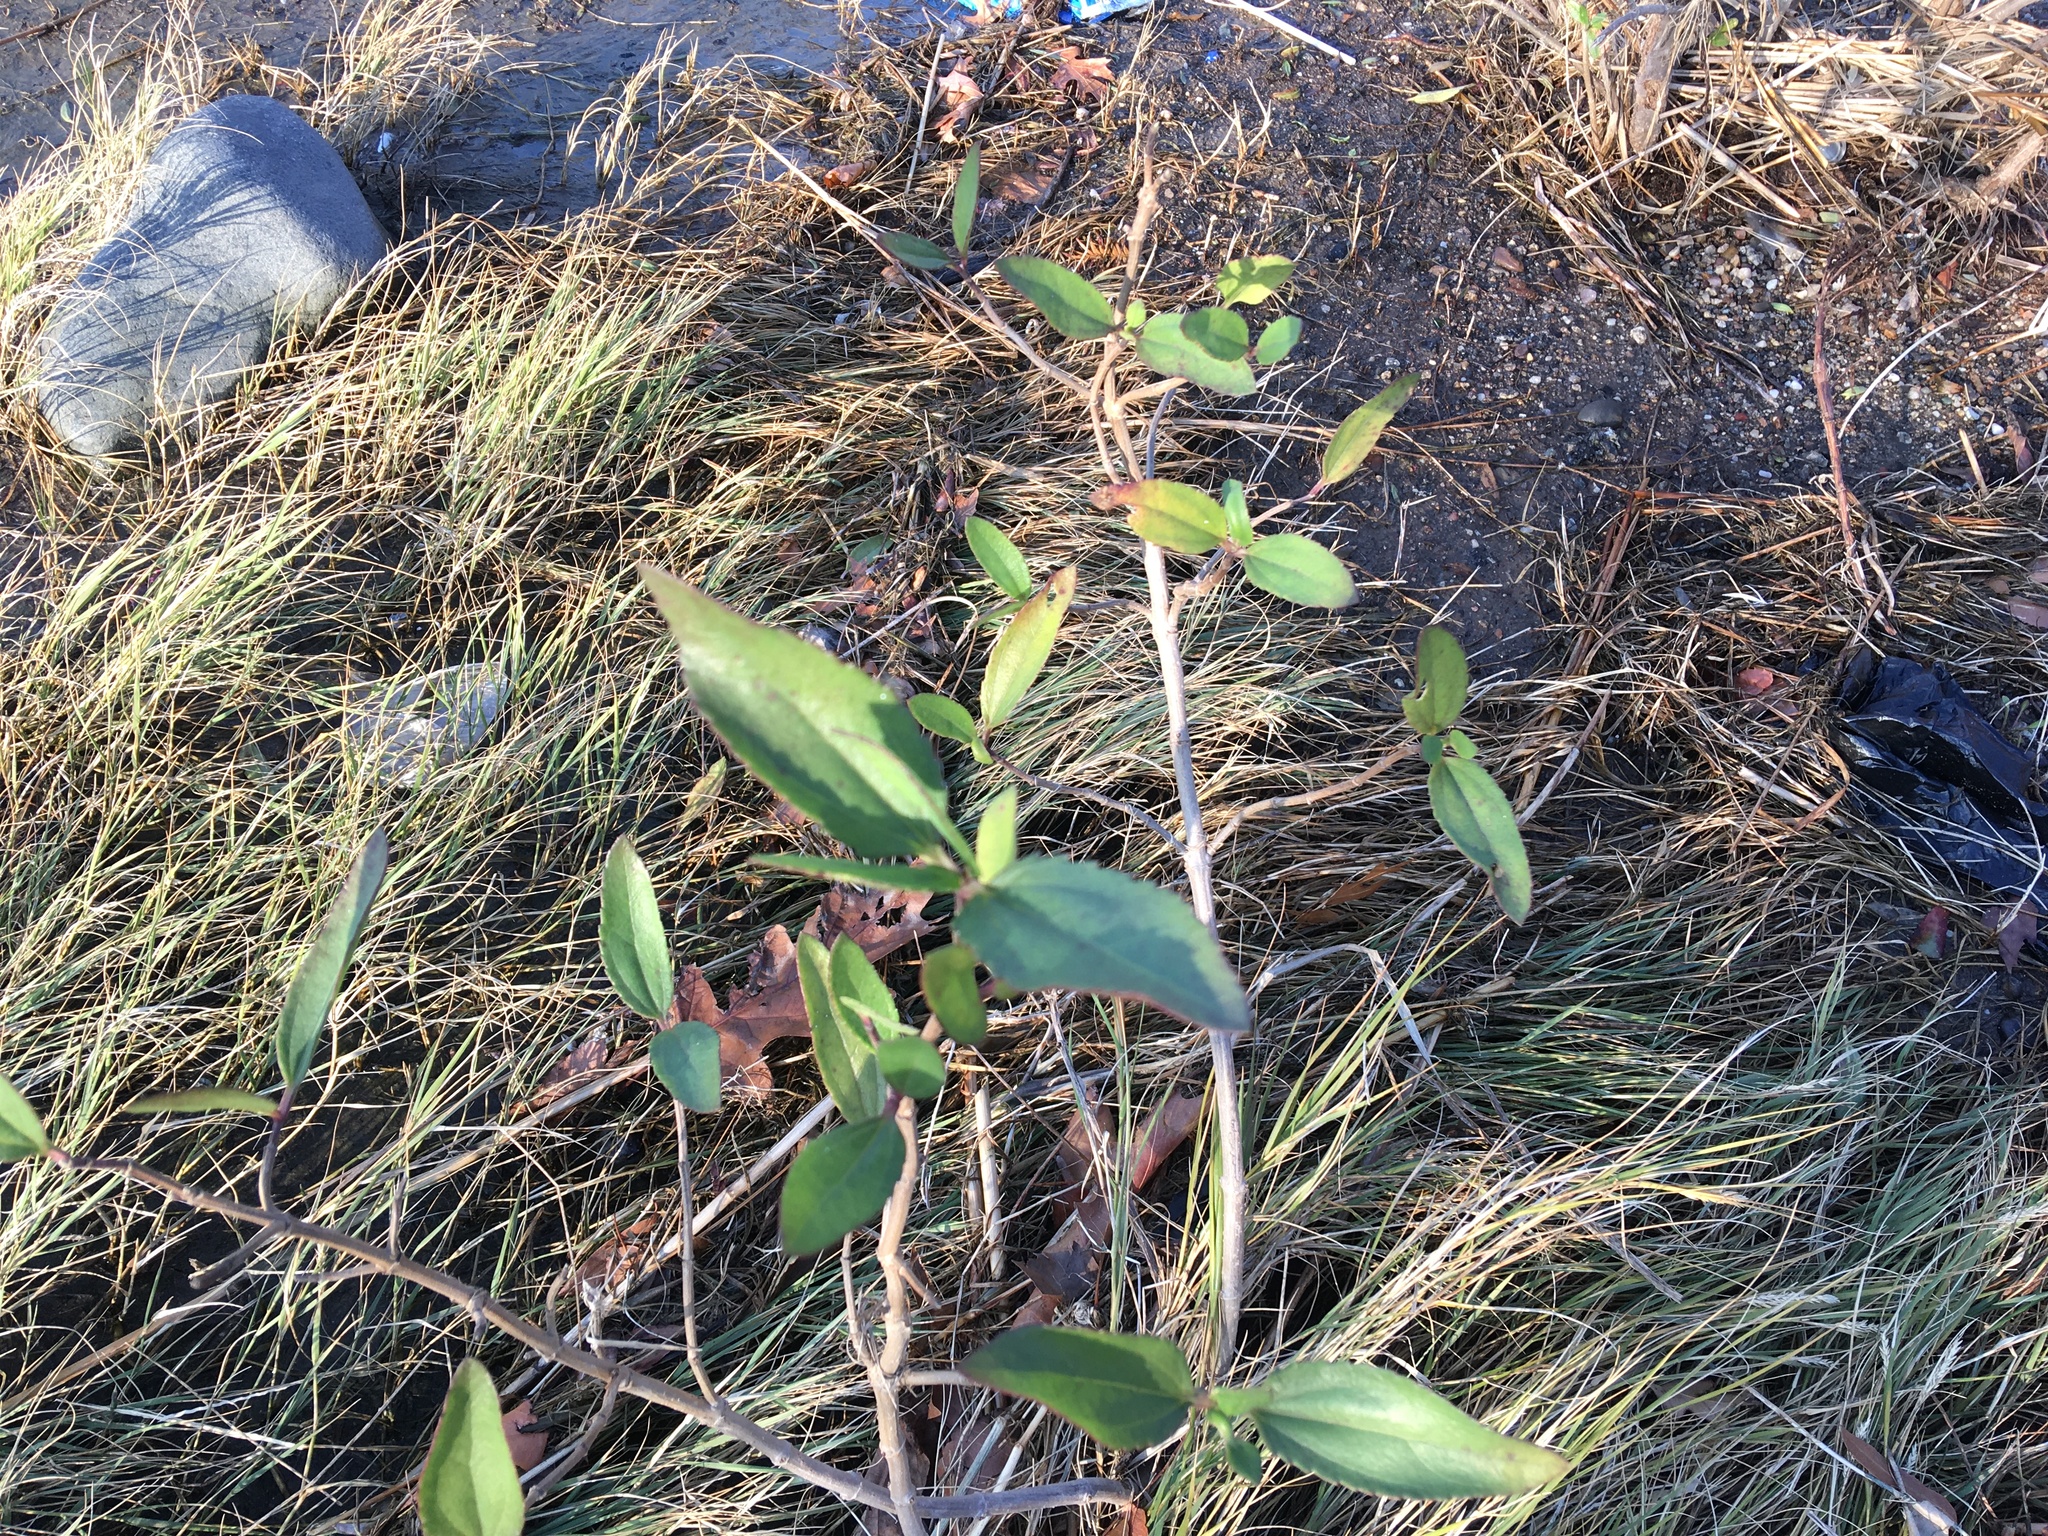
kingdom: Plantae
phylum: Tracheophyta
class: Magnoliopsida
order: Asterales
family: Asteraceae
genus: Iva
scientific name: Iva frutescens
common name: Big-leaved marsh-elder
